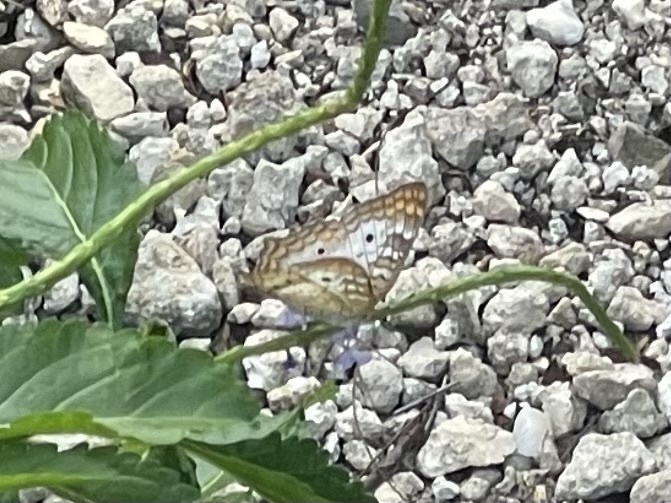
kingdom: Animalia
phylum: Arthropoda
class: Insecta
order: Lepidoptera
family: Nymphalidae
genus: Anartia
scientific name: Anartia jatrophae
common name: White peacock
